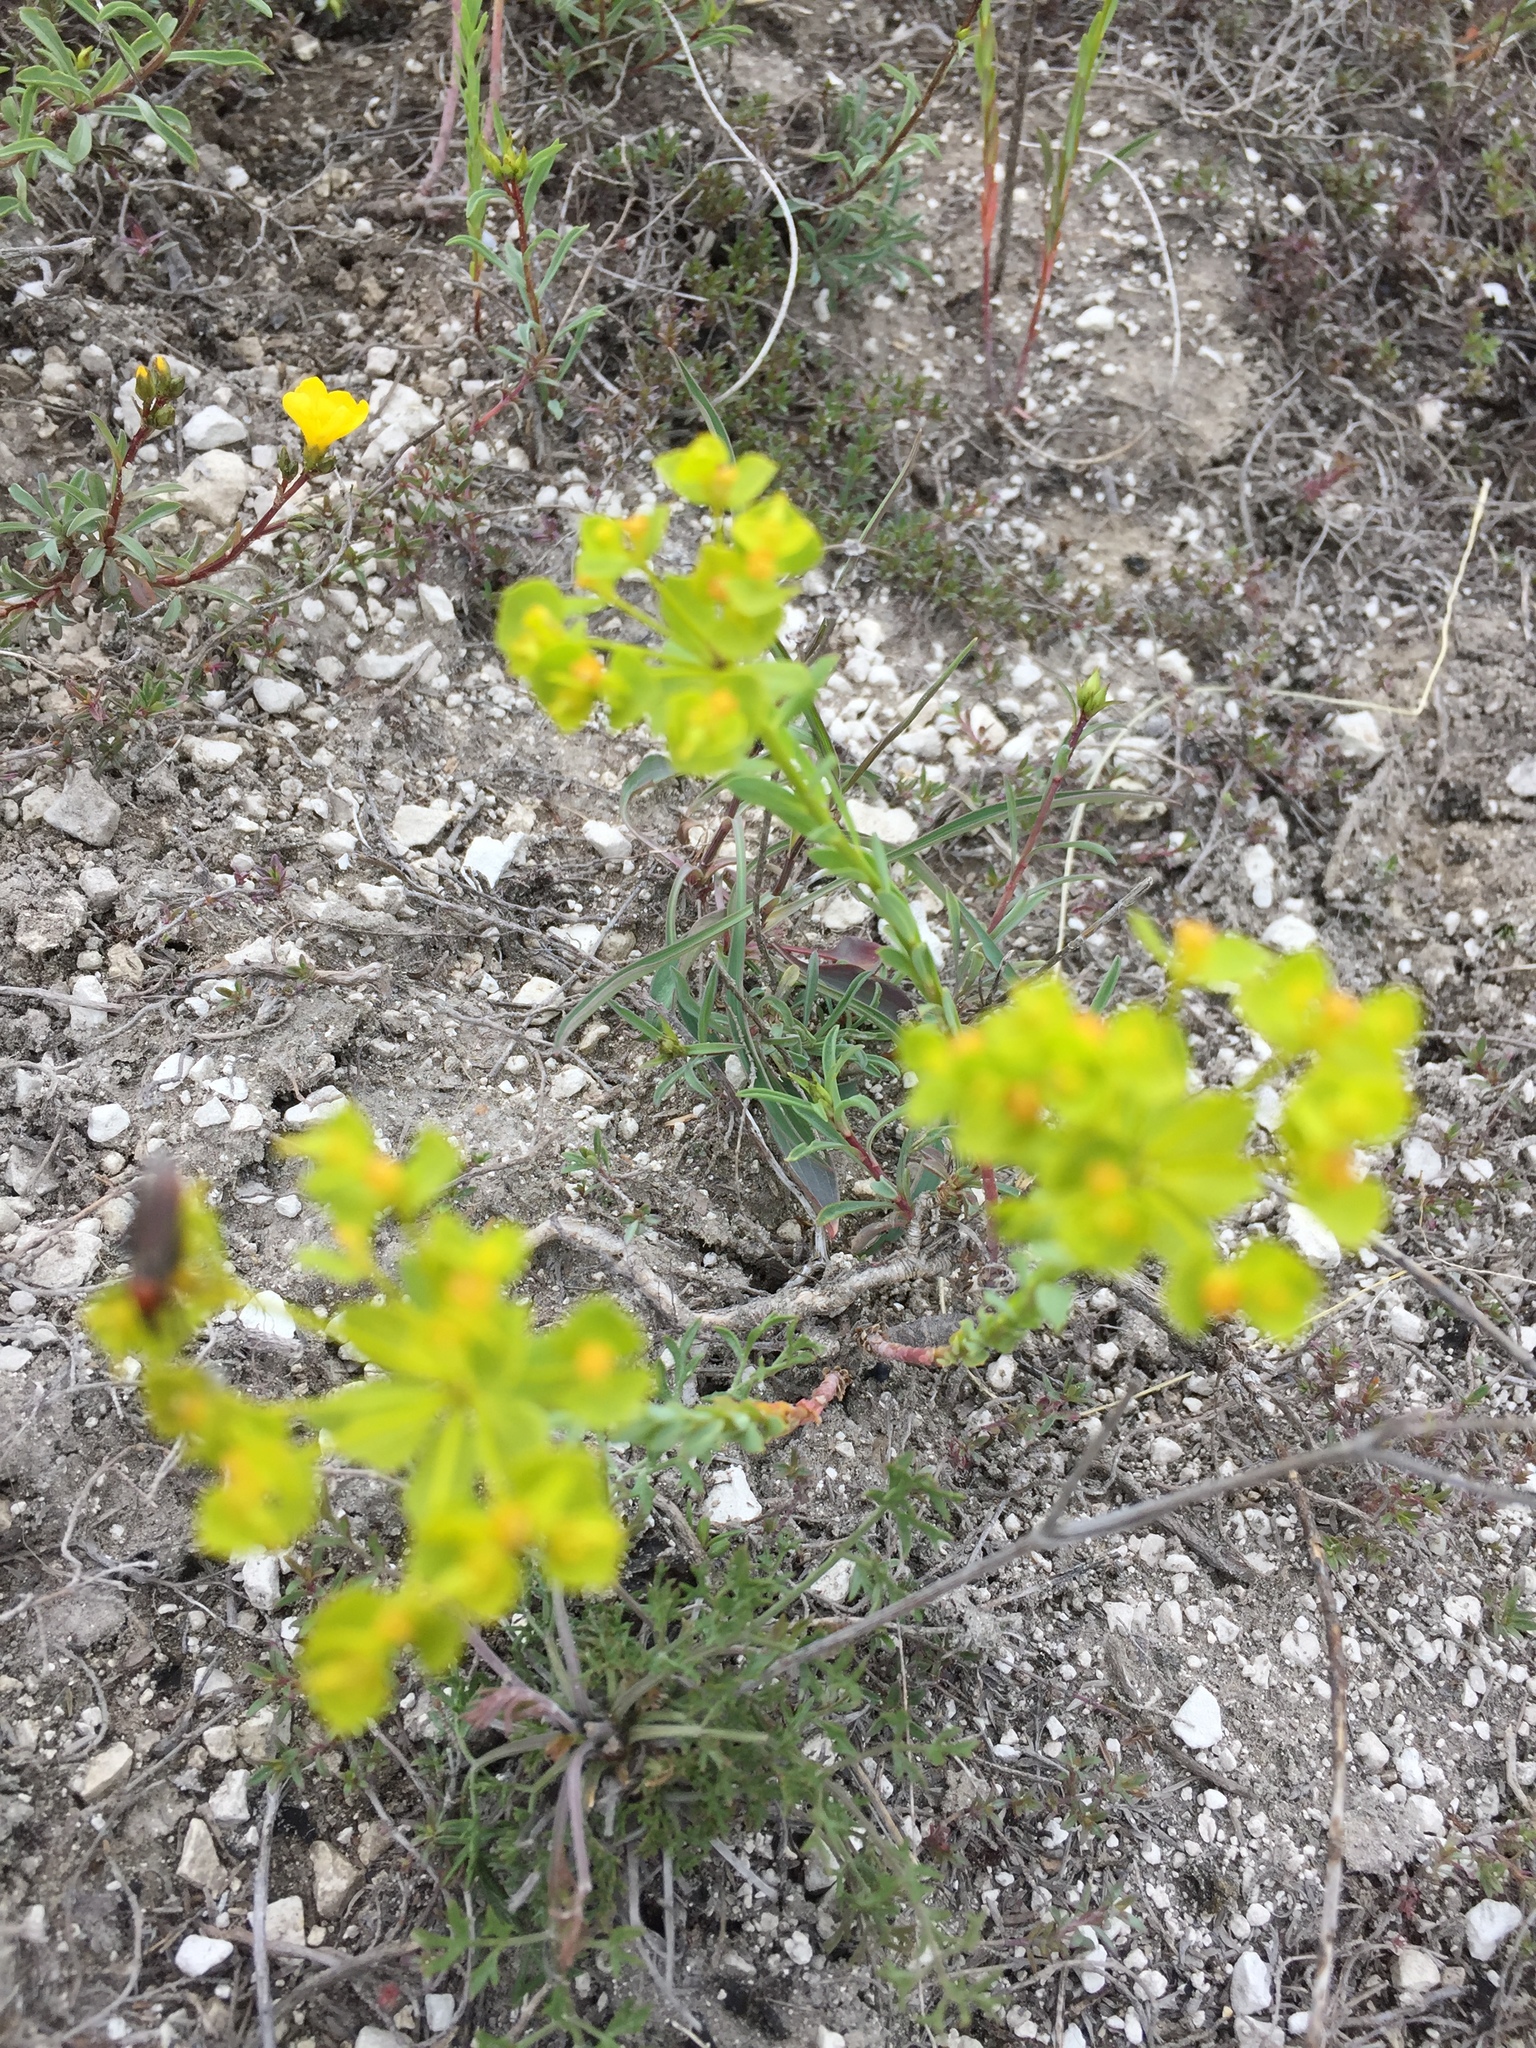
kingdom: Plantae
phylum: Tracheophyta
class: Magnoliopsida
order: Malpighiales
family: Euphorbiaceae
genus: Euphorbia
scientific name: Euphorbia seguieriana
